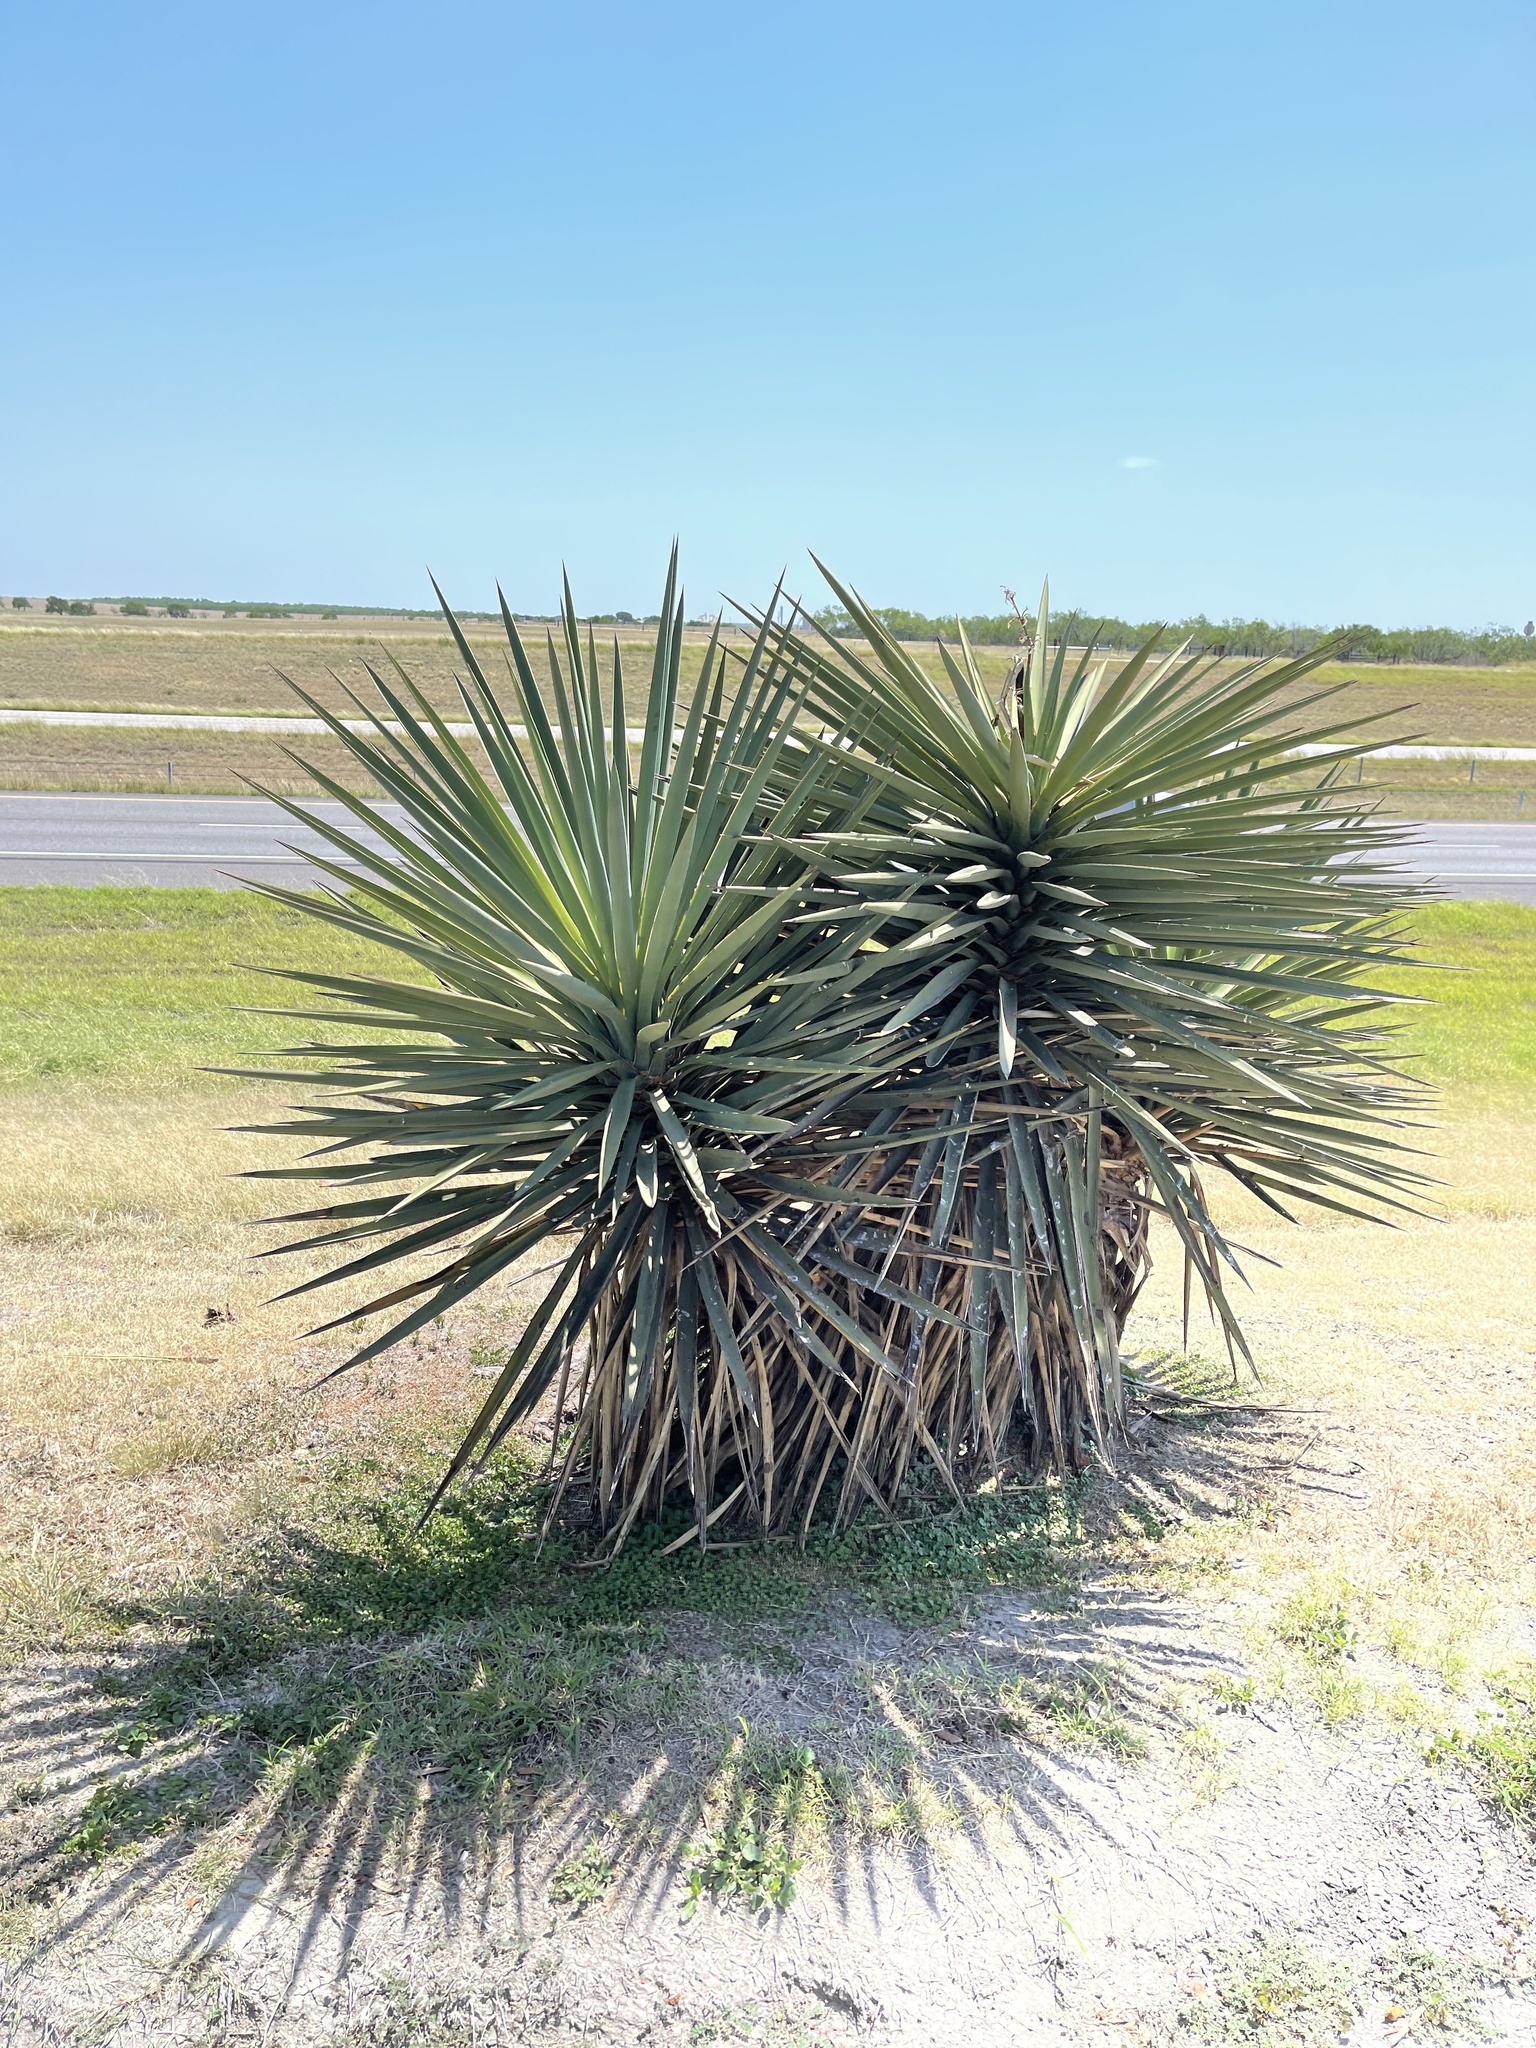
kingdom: Plantae
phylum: Tracheophyta
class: Liliopsida
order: Asparagales
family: Asparagaceae
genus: Yucca
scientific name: Yucca treculiana
